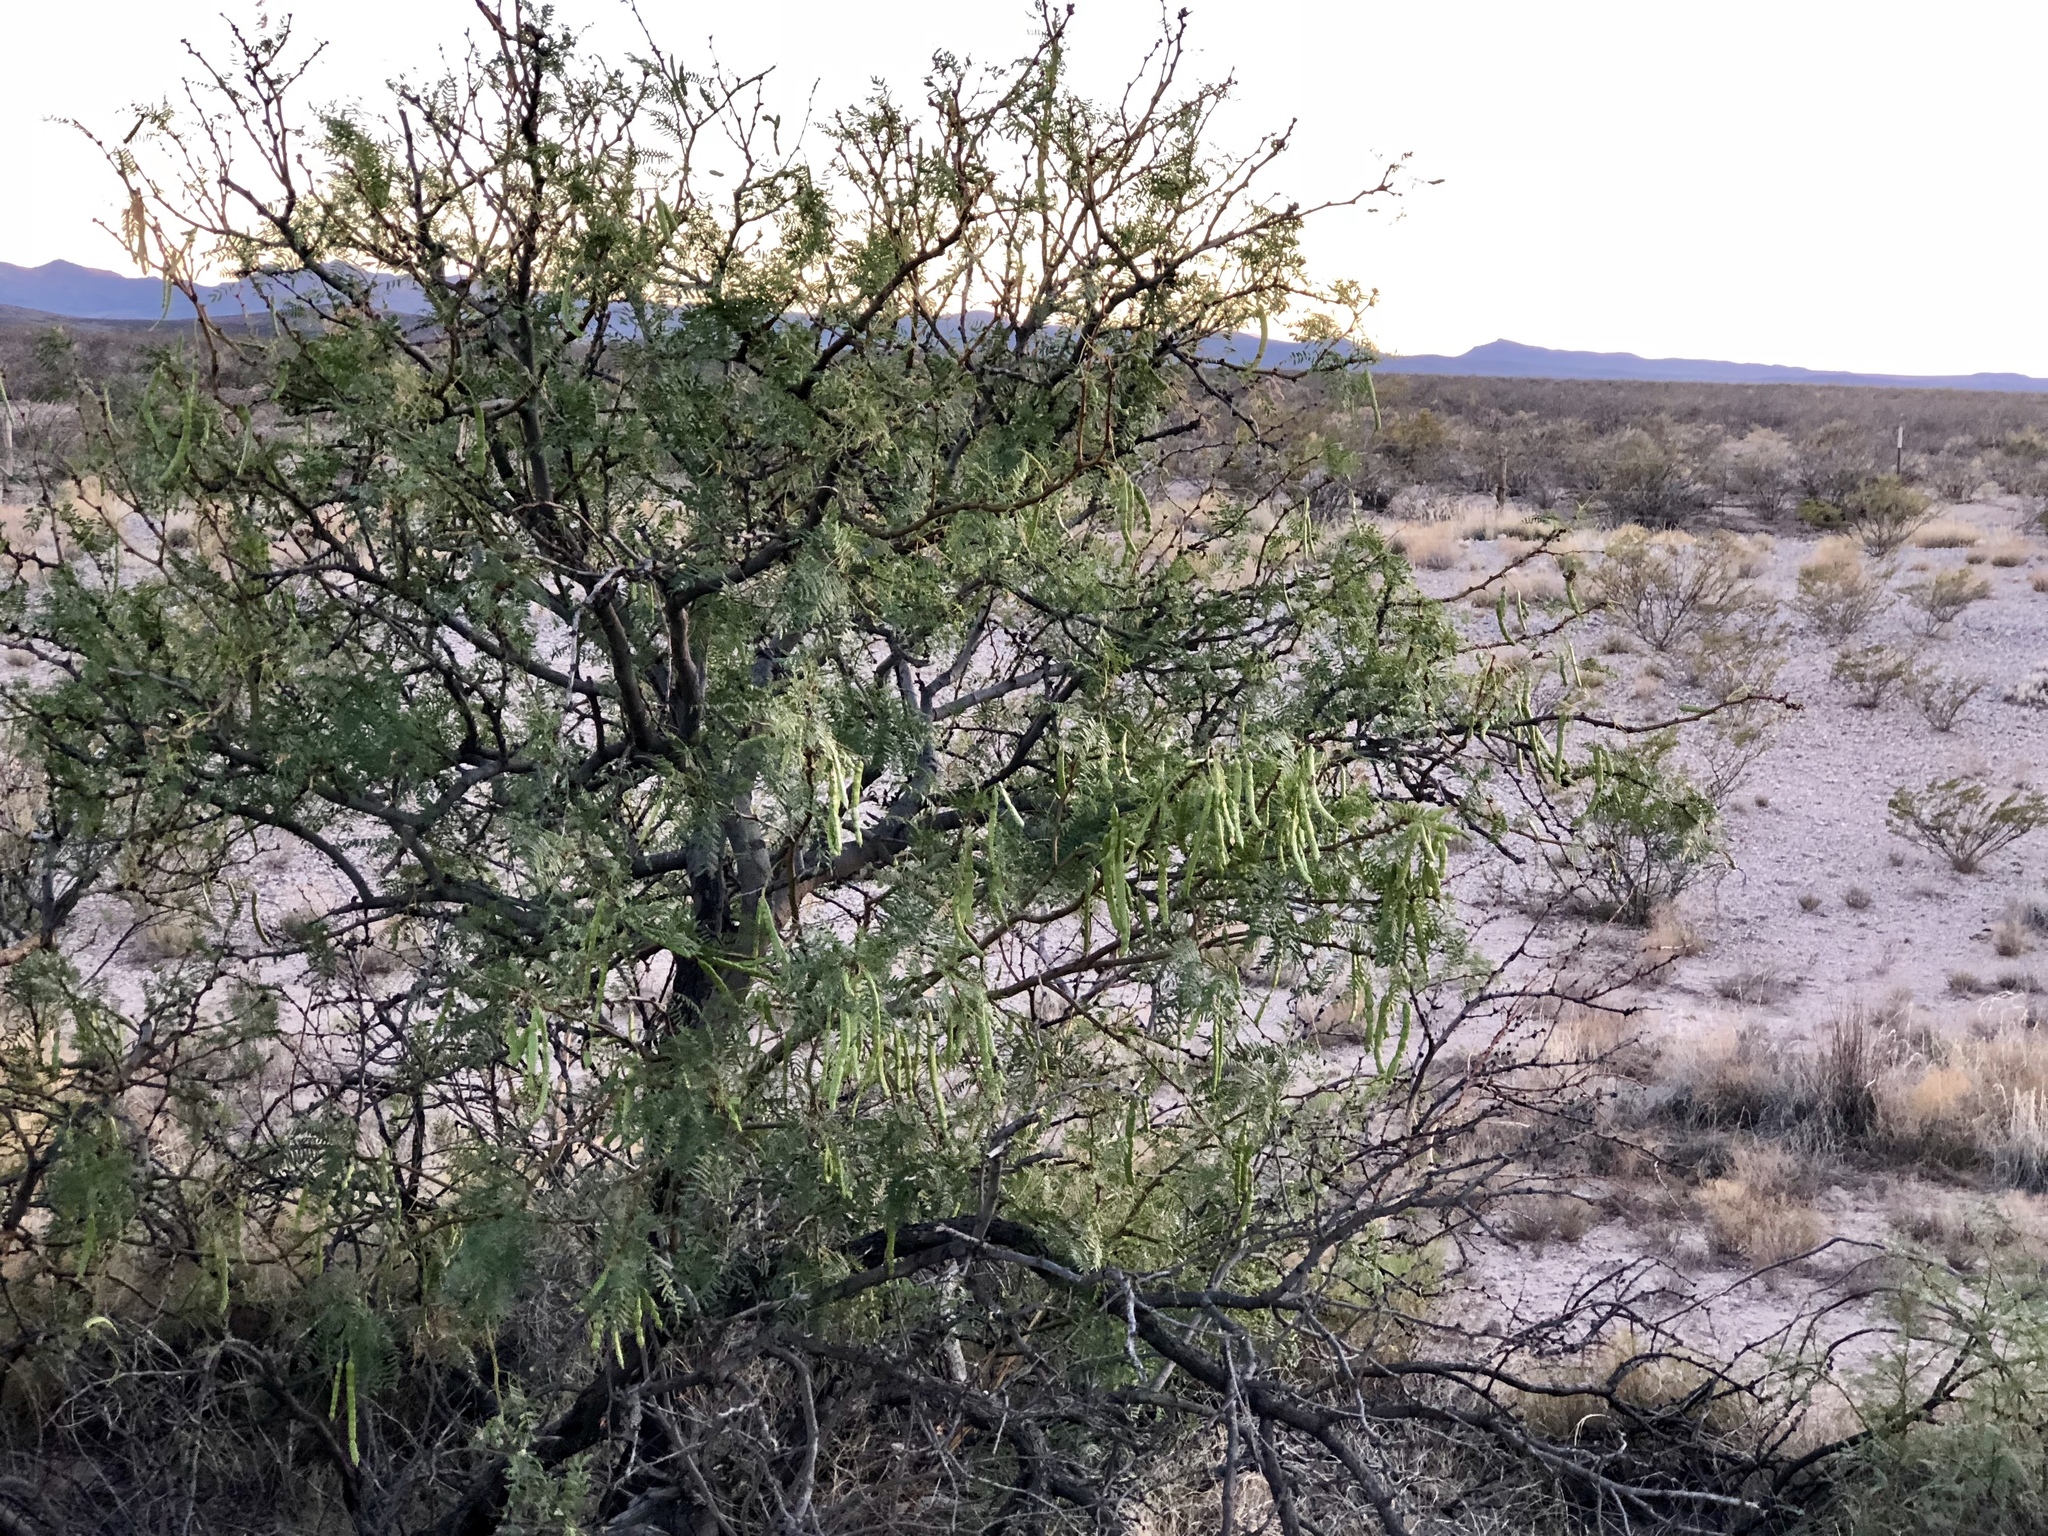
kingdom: Plantae
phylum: Tracheophyta
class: Magnoliopsida
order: Fabales
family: Fabaceae
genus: Prosopis
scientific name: Prosopis glandulosa
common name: Honey mesquite
